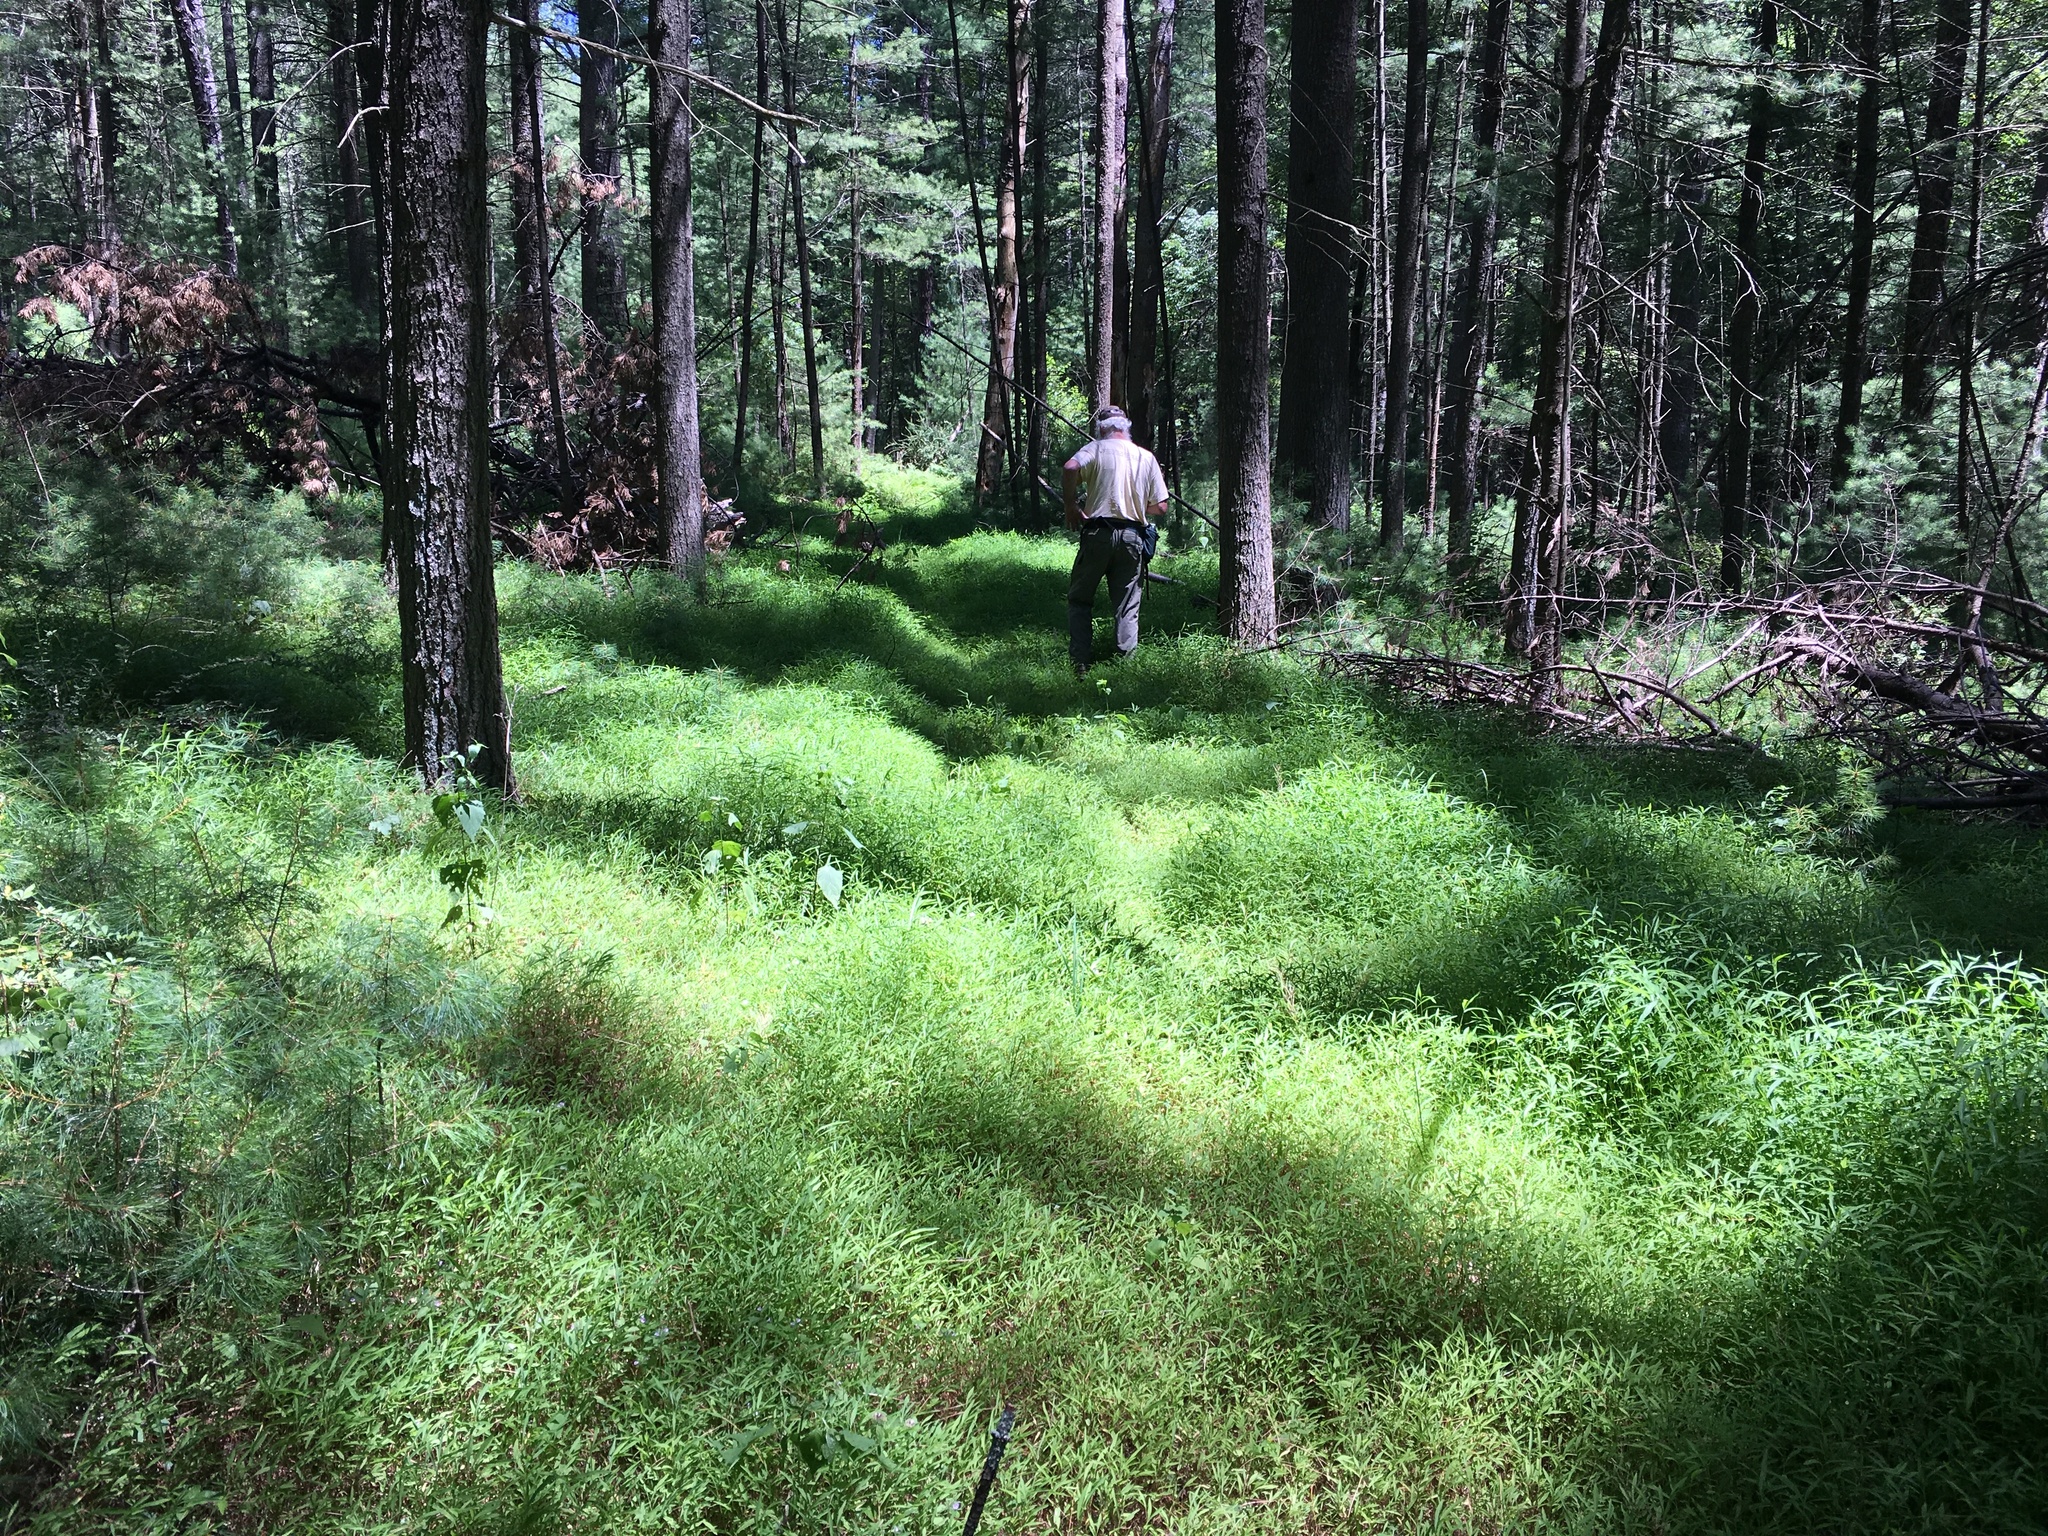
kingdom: Plantae
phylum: Tracheophyta
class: Liliopsida
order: Poales
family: Poaceae
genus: Microstegium
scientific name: Microstegium vimineum
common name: Japanese stiltgrass
